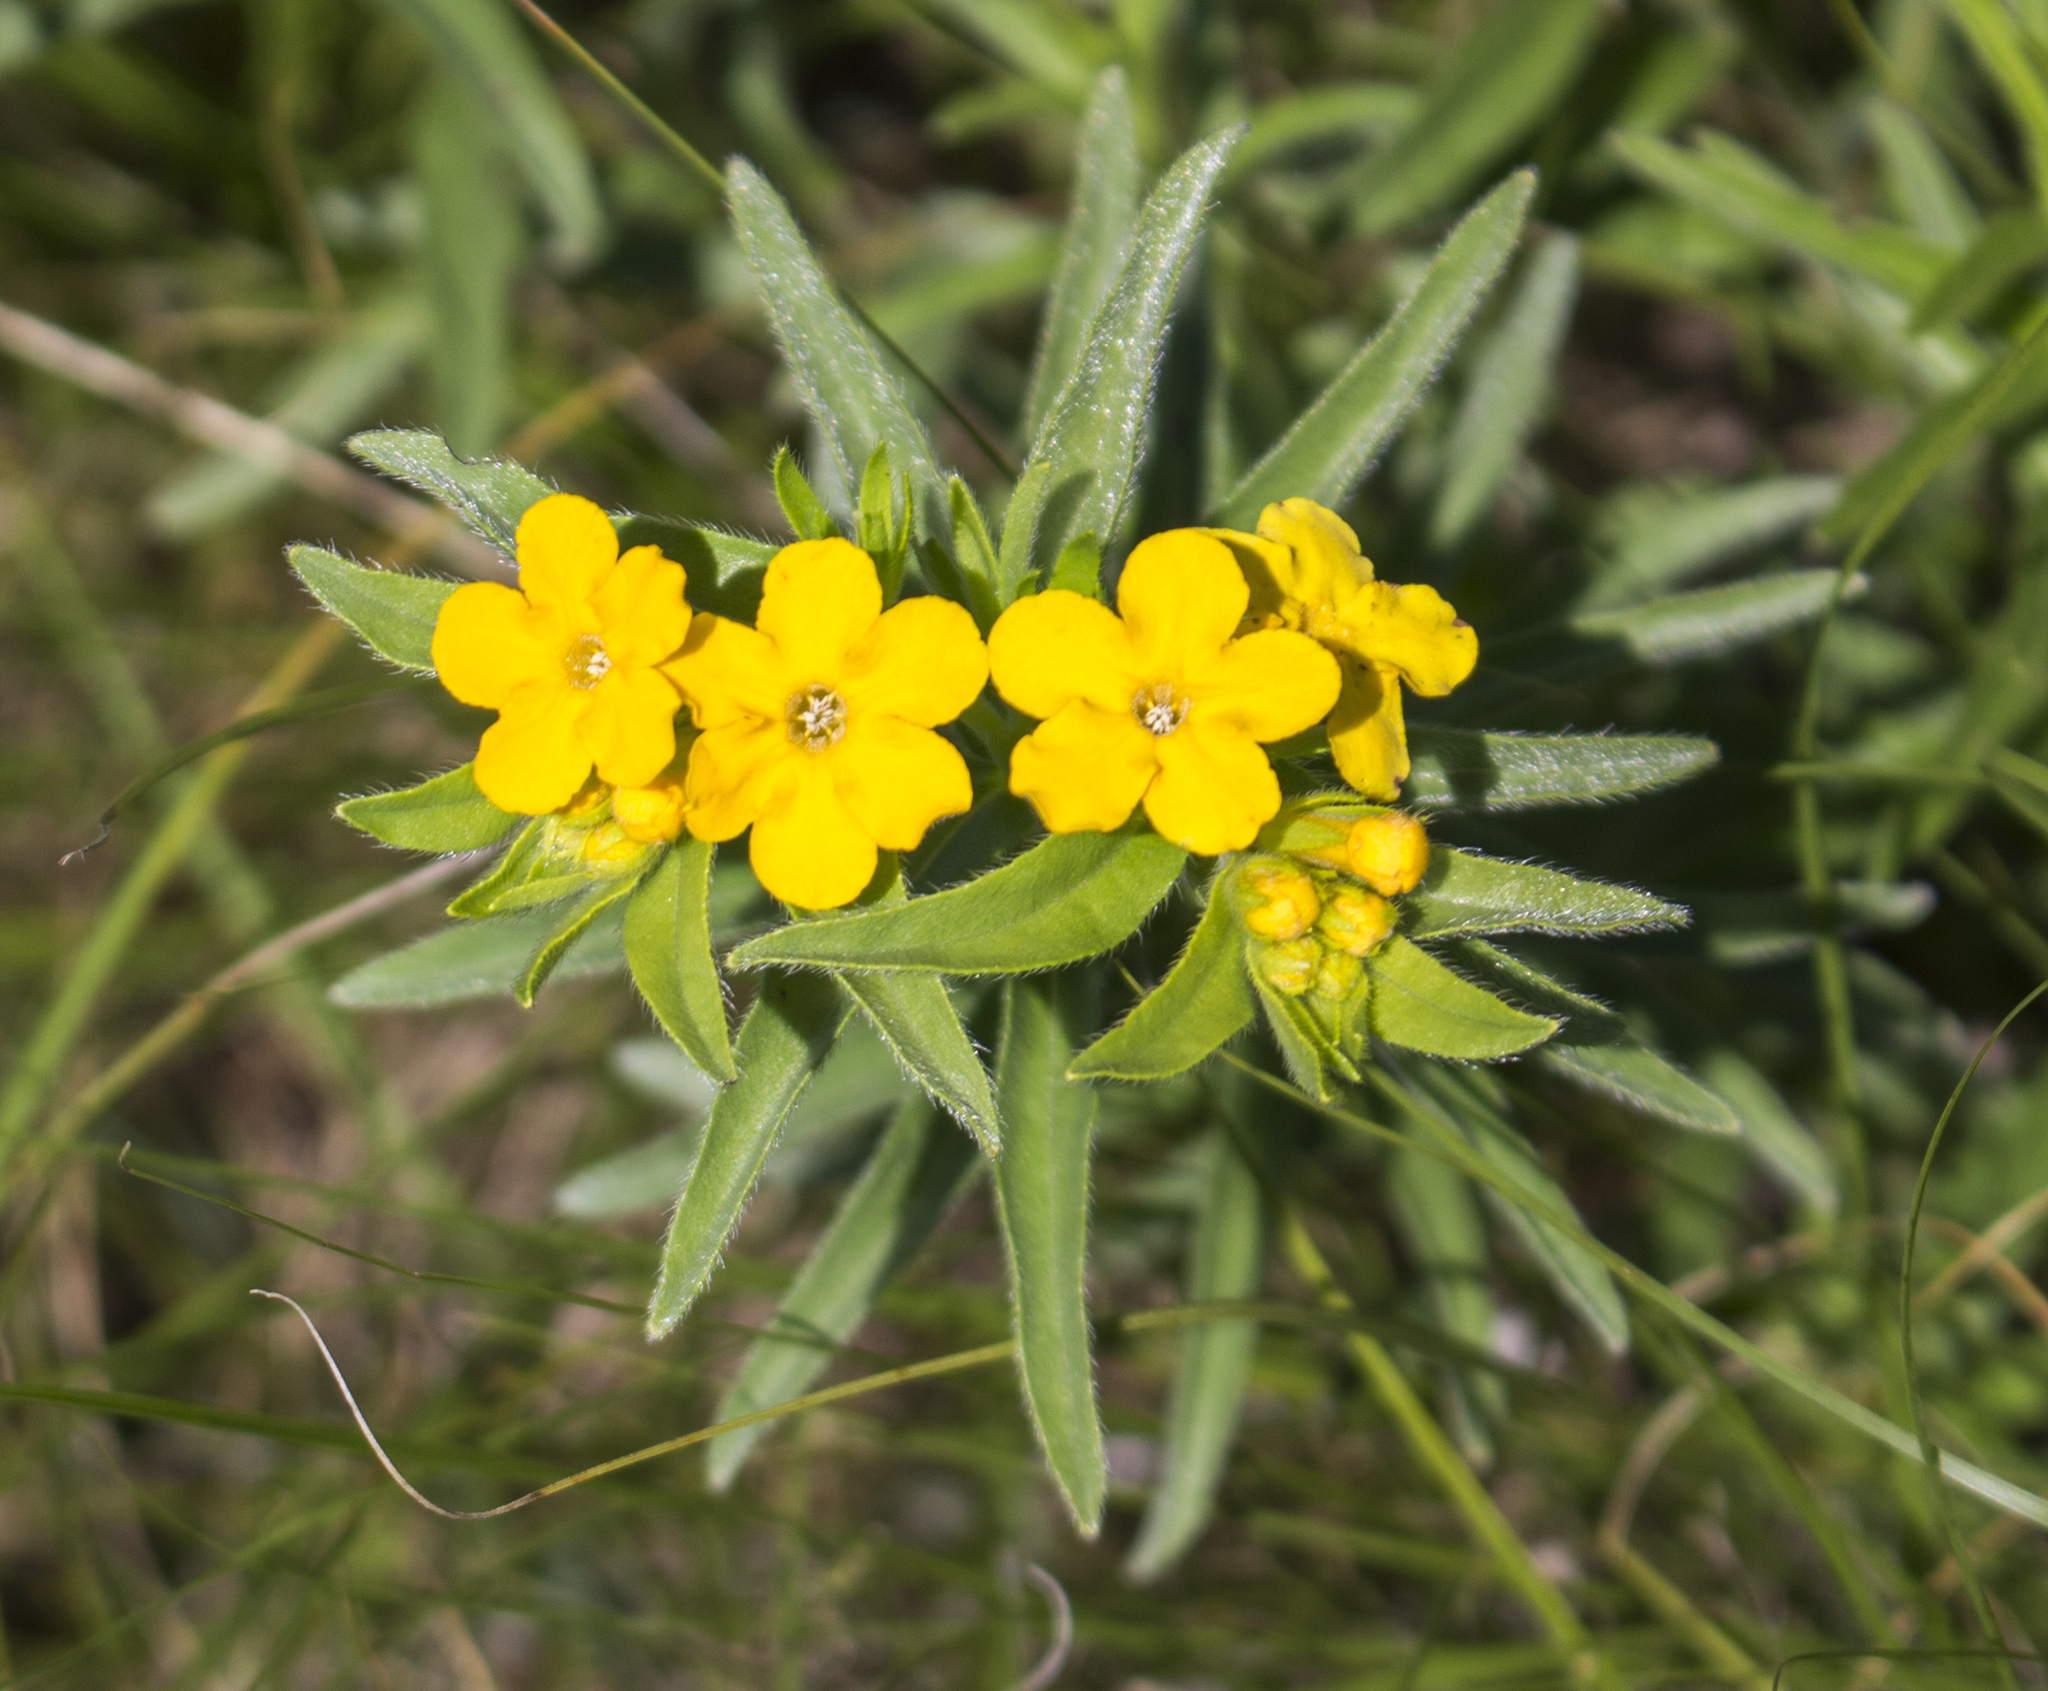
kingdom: Plantae
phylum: Tracheophyta
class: Magnoliopsida
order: Boraginales
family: Boraginaceae
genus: Lithospermum
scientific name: Lithospermum caroliniense
